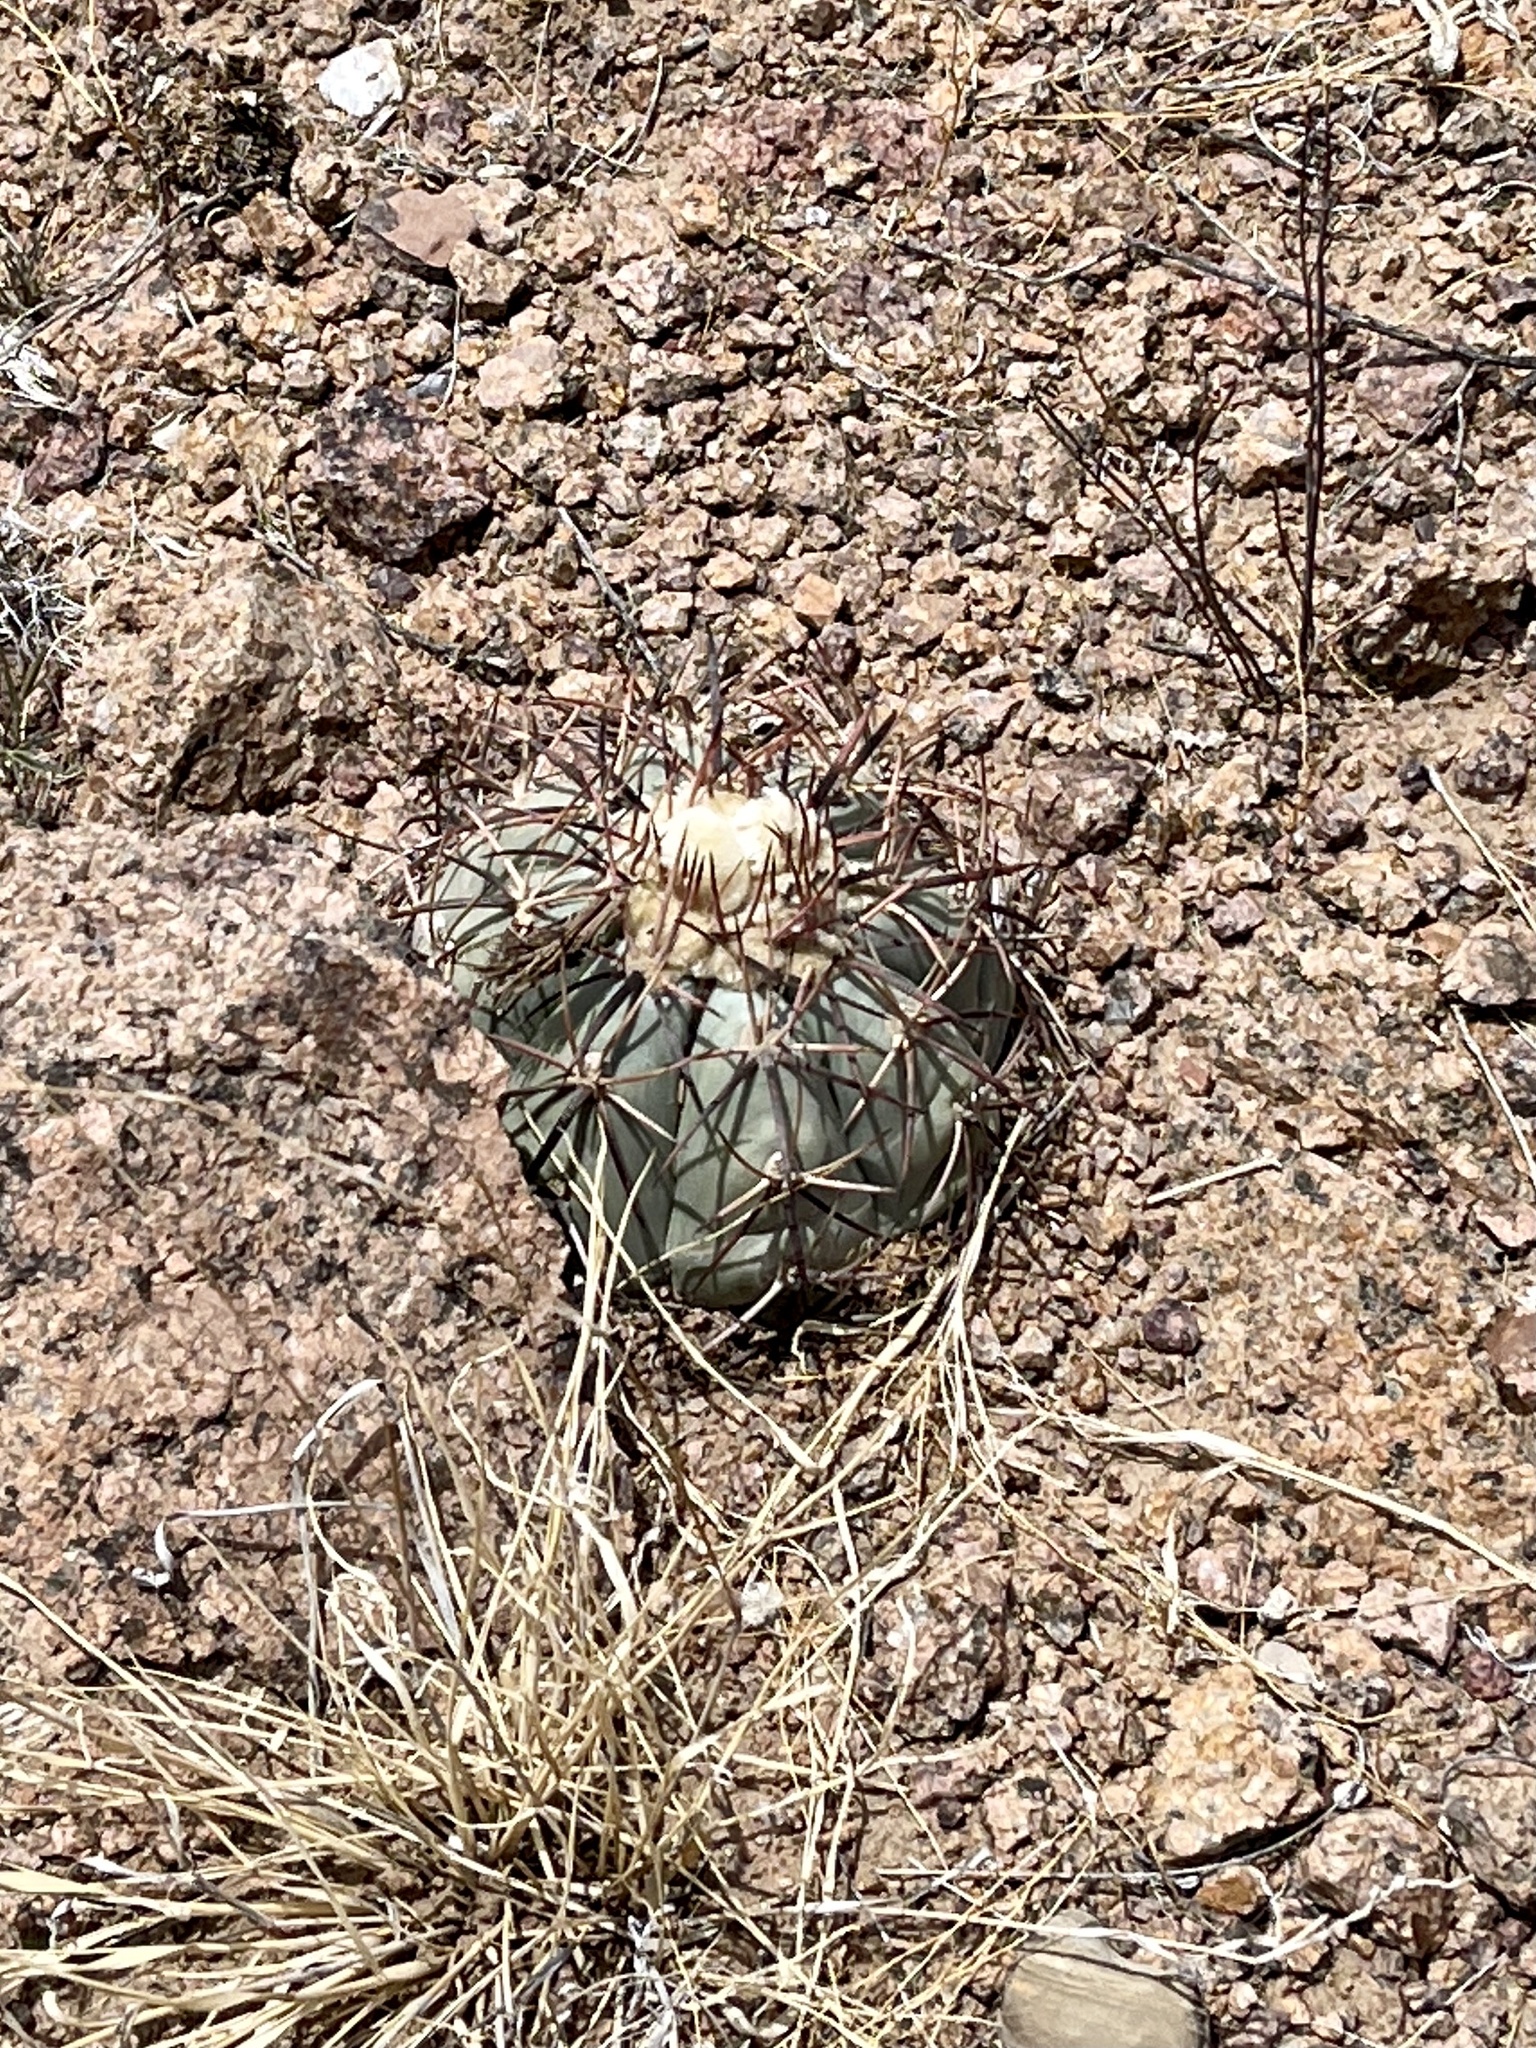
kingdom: Plantae
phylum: Tracheophyta
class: Magnoliopsida
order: Caryophyllales
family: Cactaceae
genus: Echinocactus
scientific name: Echinocactus horizonthalonius
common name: Devilshead
